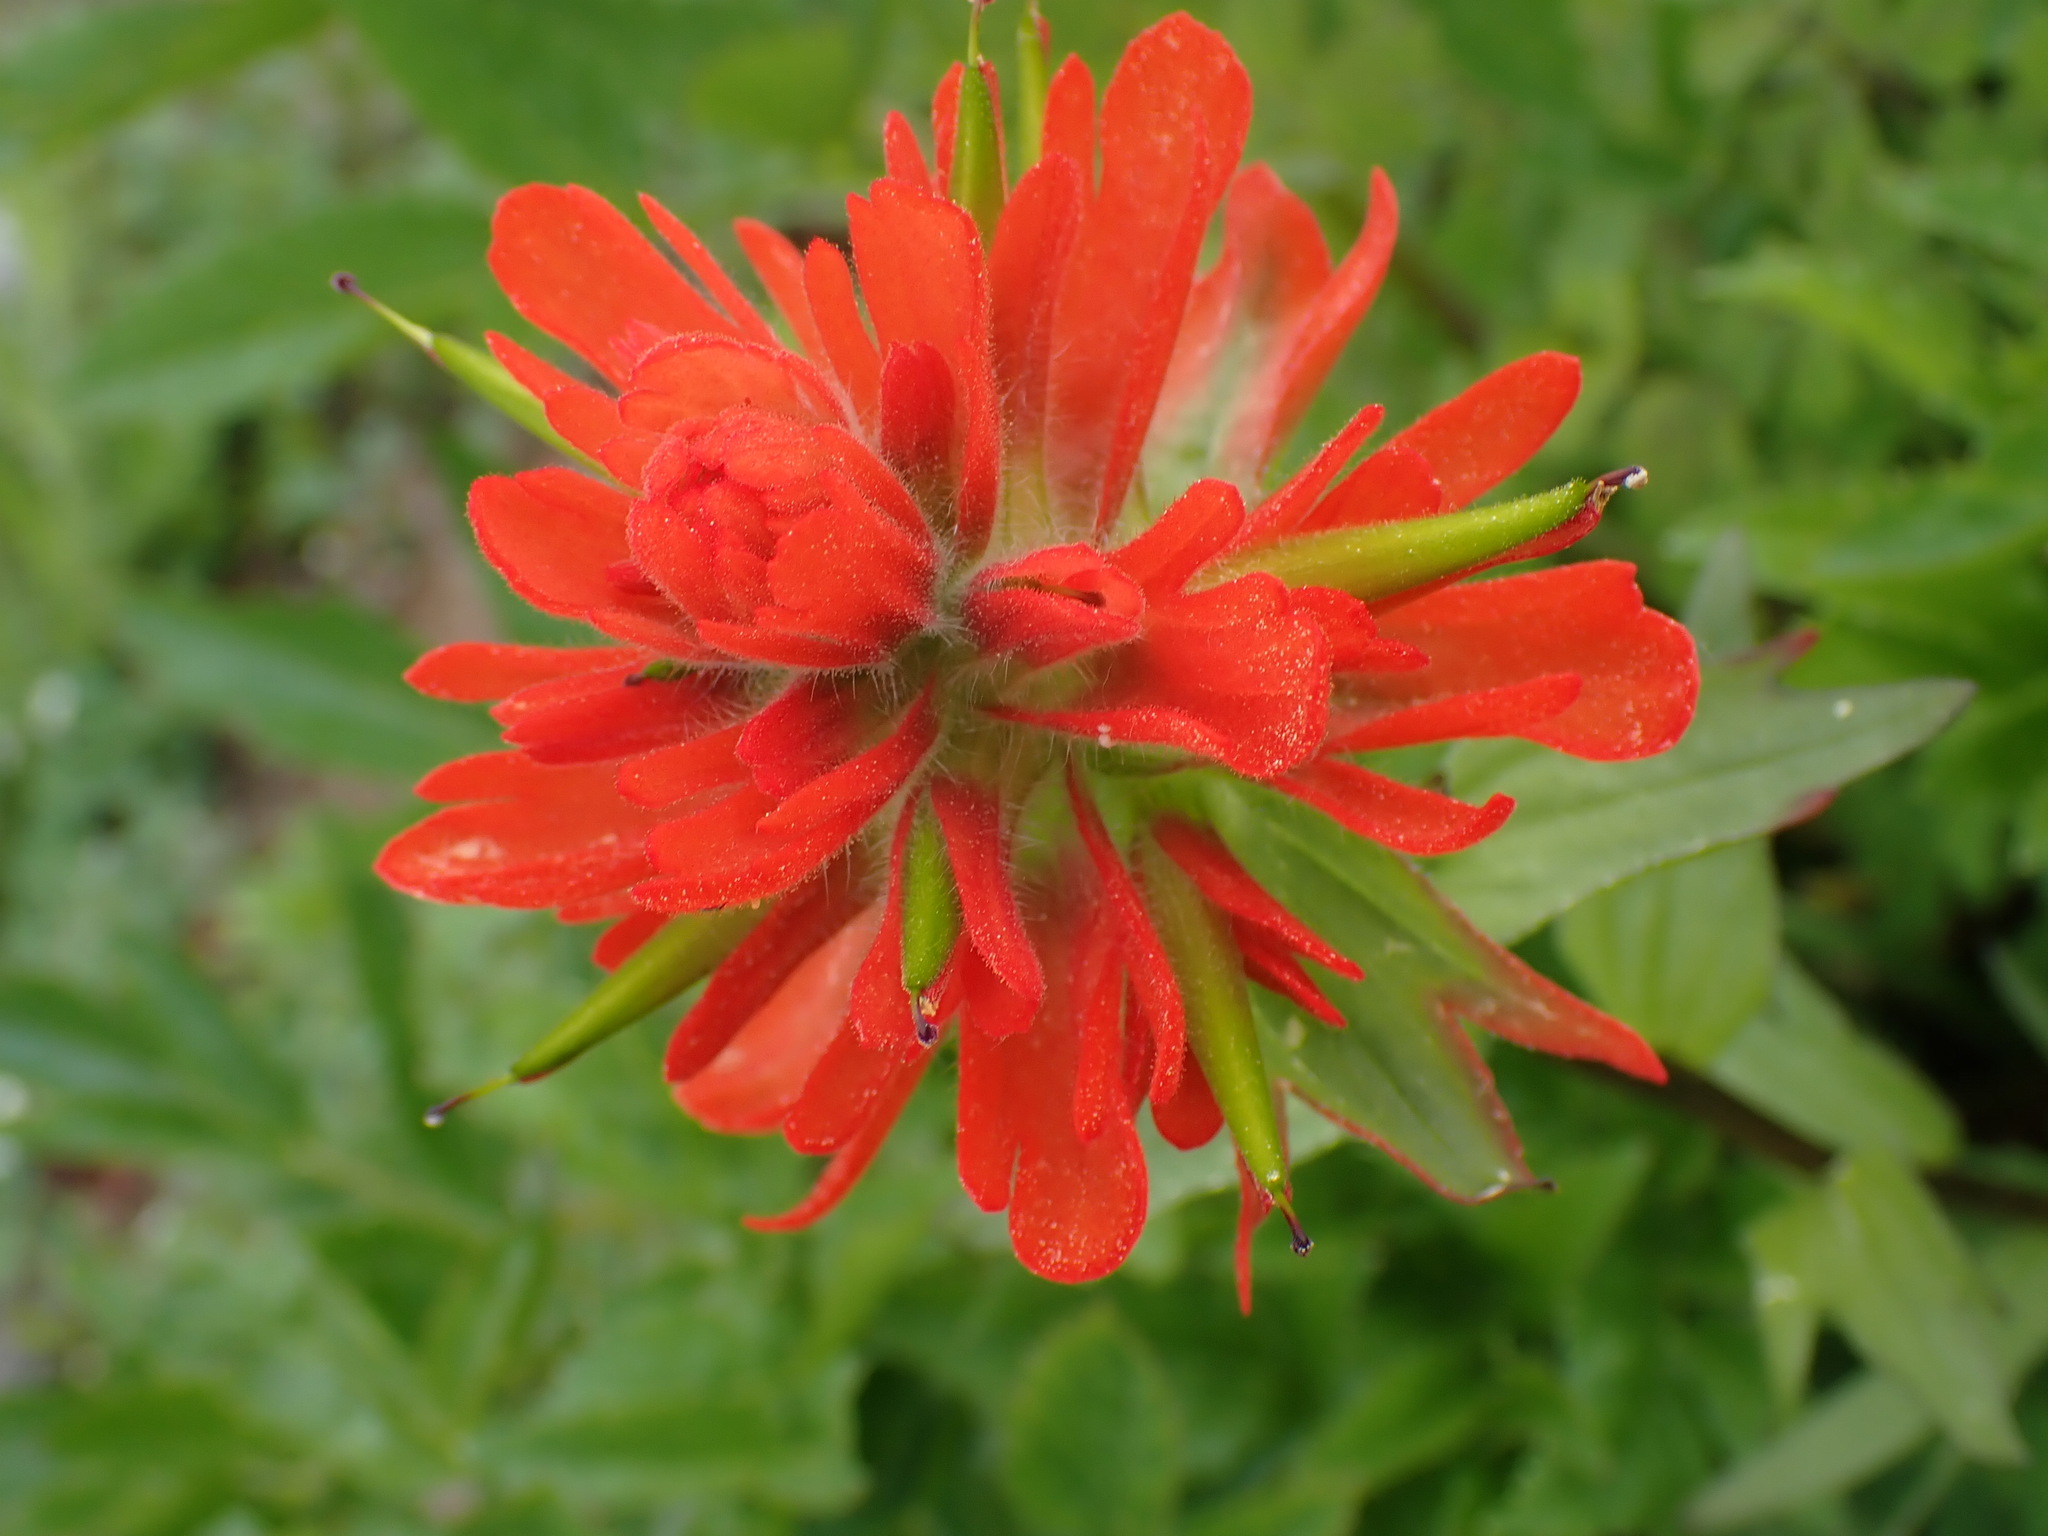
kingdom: Plantae
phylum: Tracheophyta
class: Magnoliopsida
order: Lamiales
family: Orobanchaceae
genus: Castilleja
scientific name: Castilleja miniata
